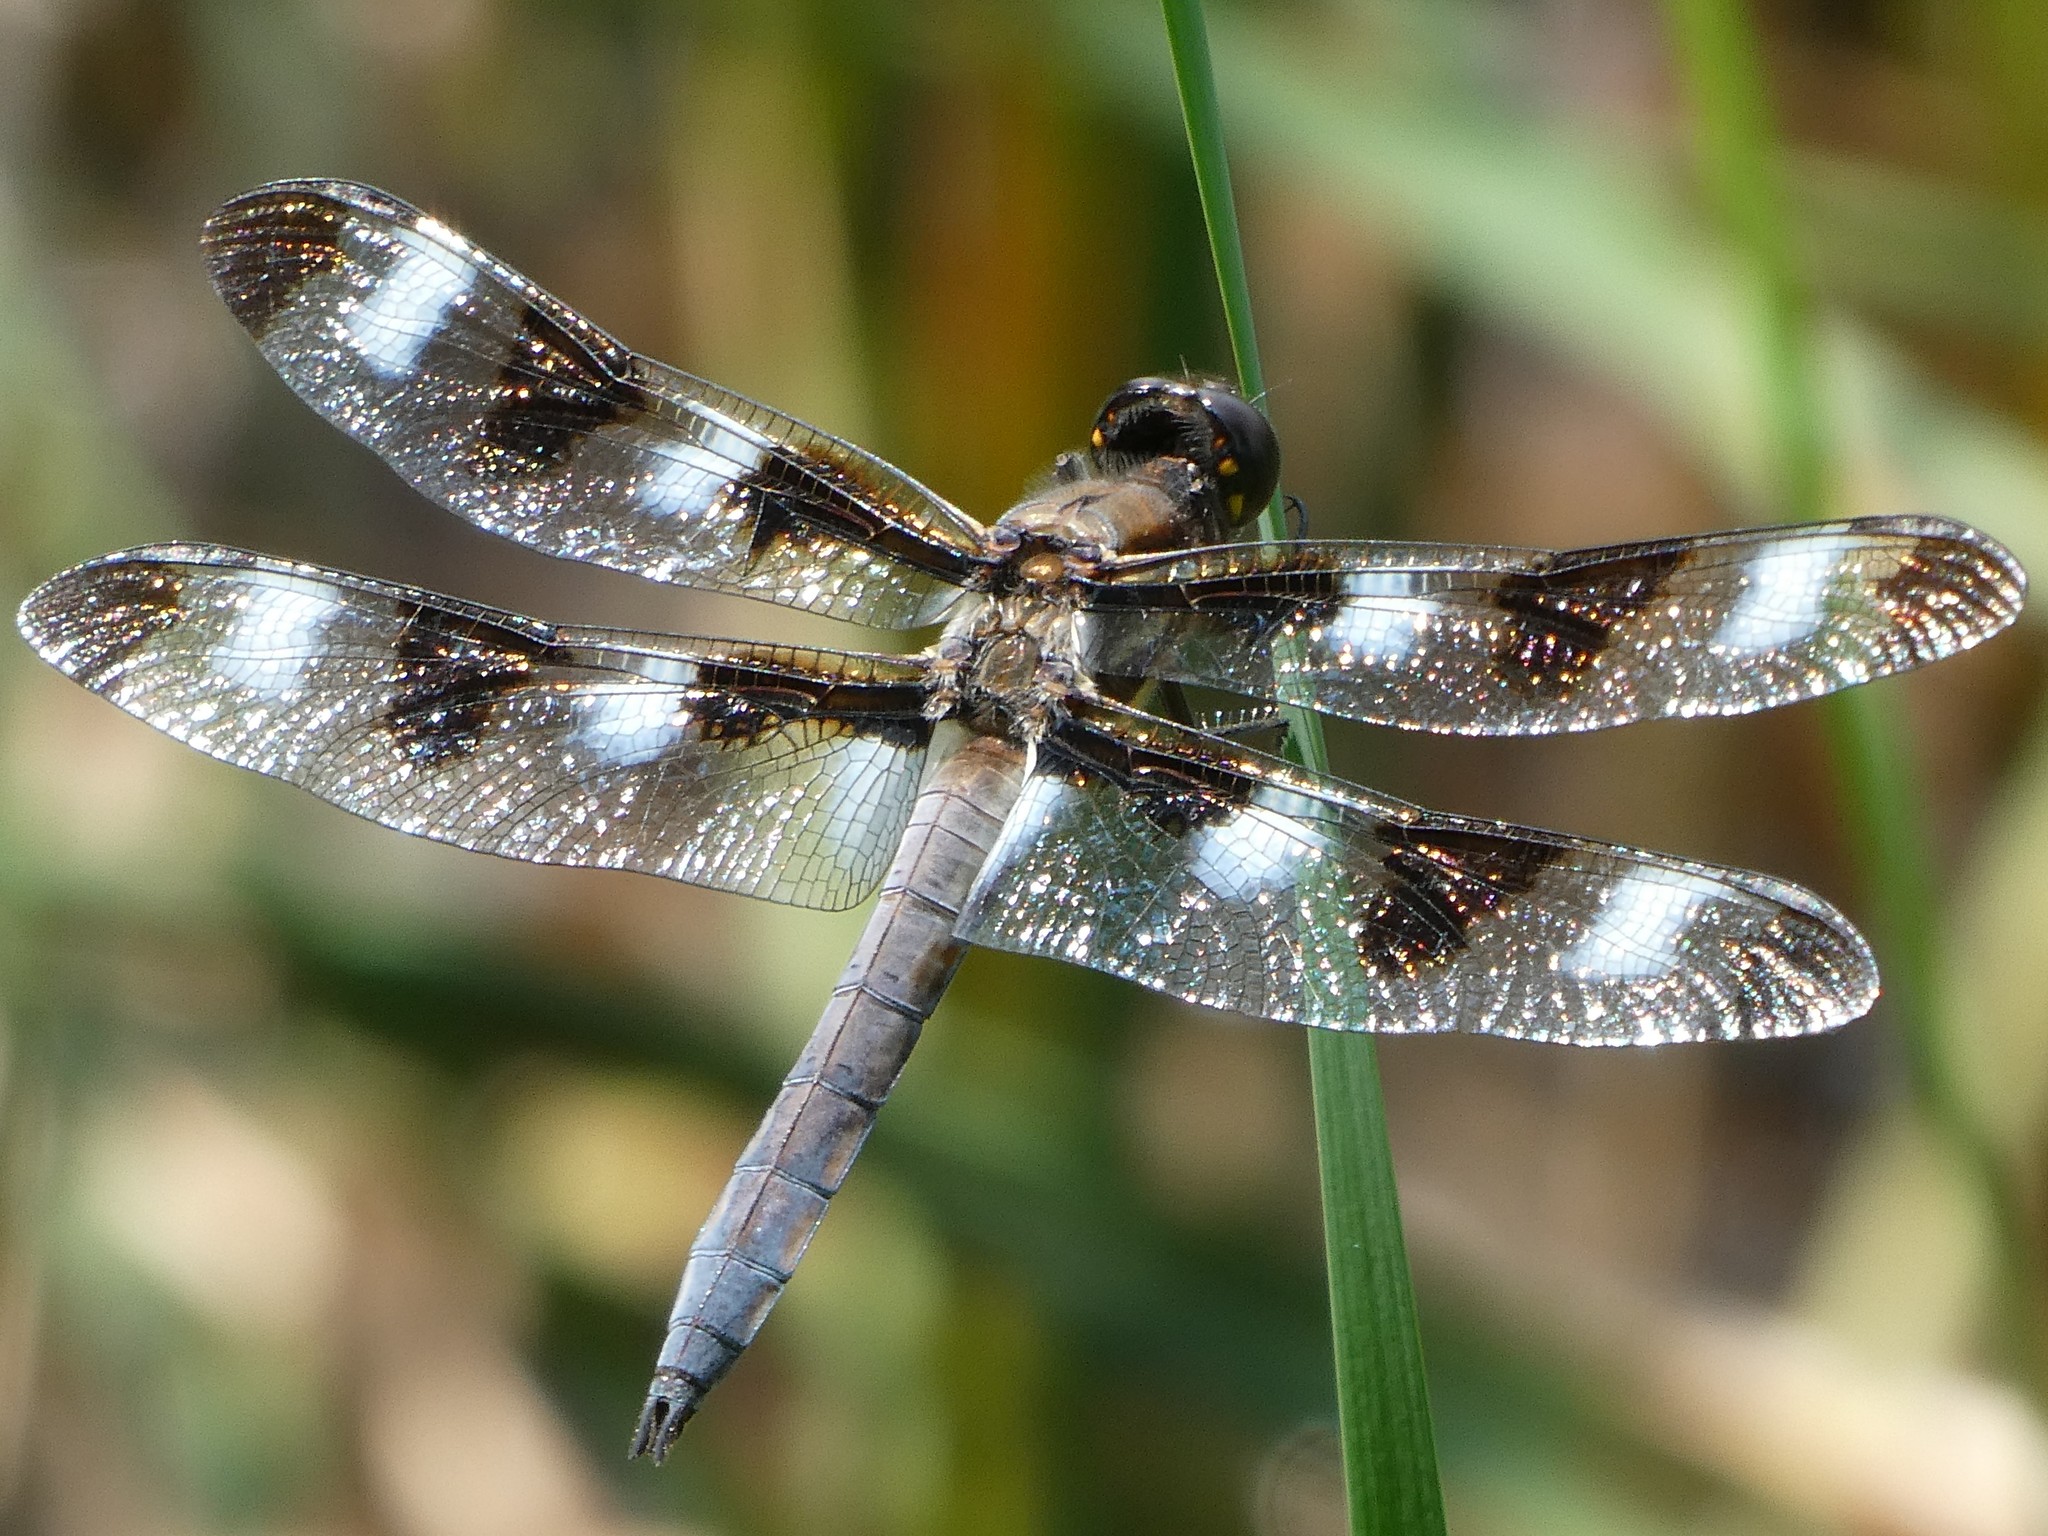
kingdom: Animalia
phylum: Arthropoda
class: Insecta
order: Odonata
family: Libellulidae
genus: Libellula
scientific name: Libellula pulchella
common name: Twelve-spotted skimmer
